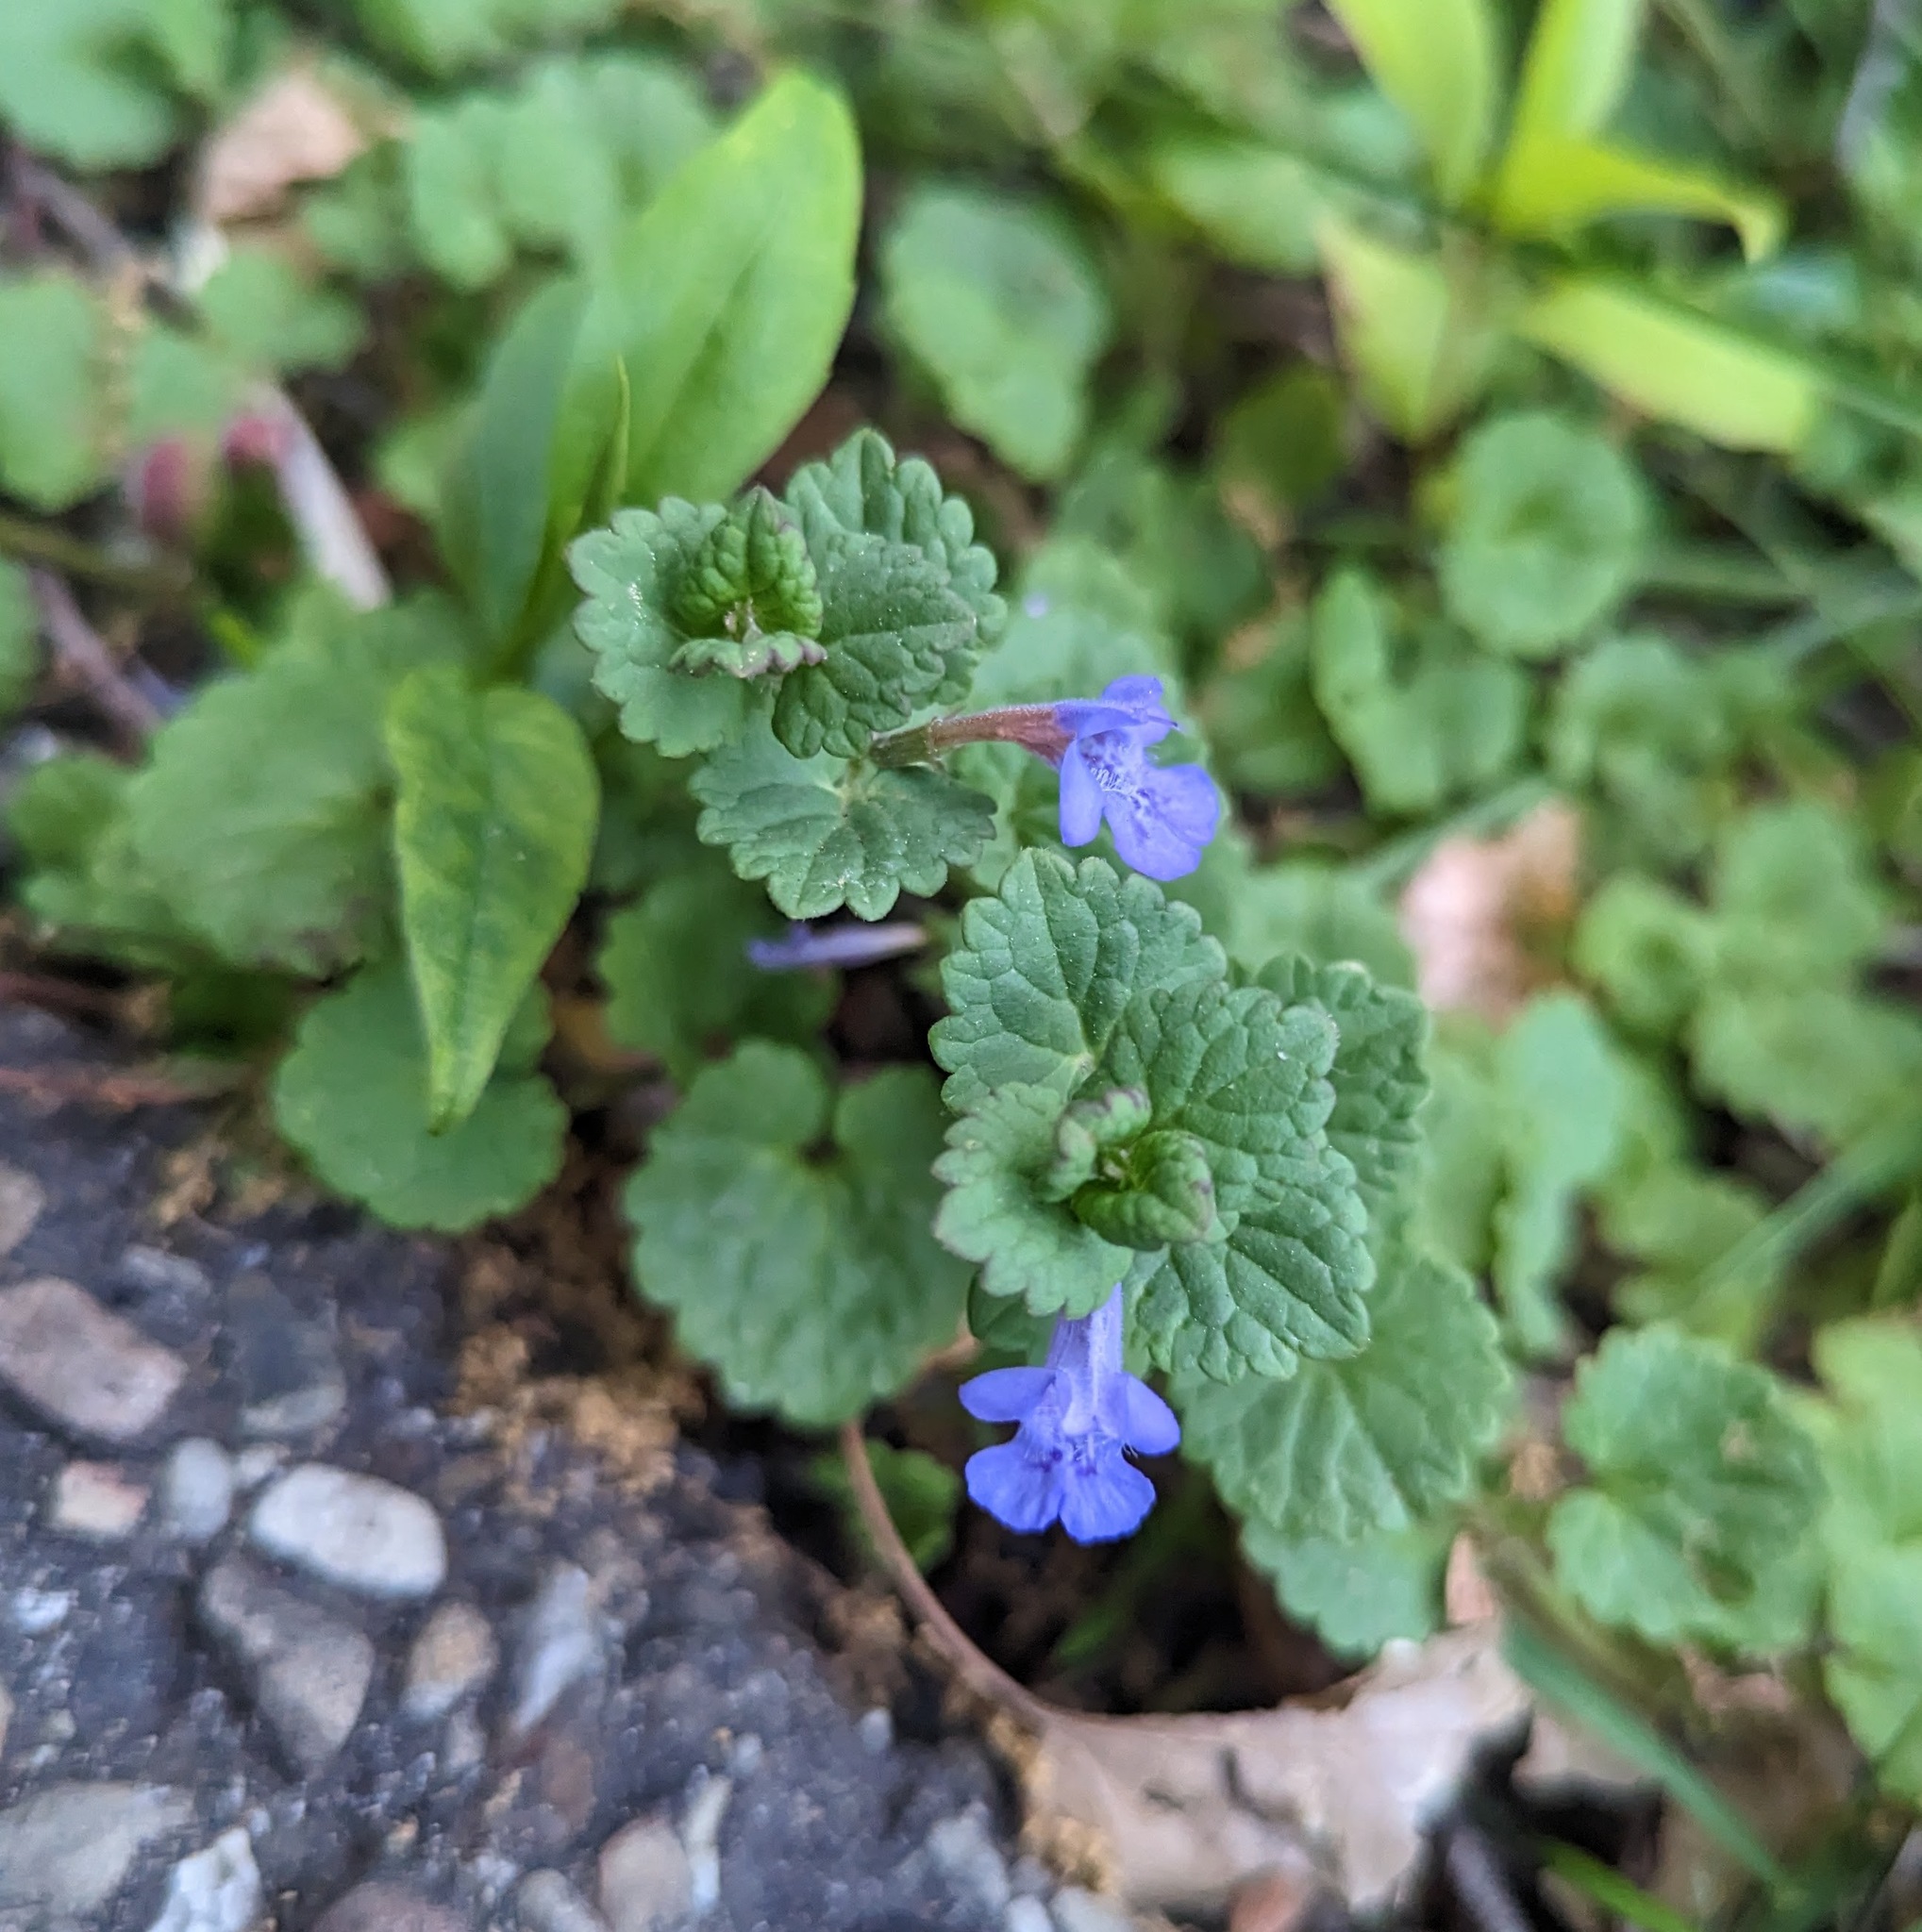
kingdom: Plantae
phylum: Tracheophyta
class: Magnoliopsida
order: Lamiales
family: Lamiaceae
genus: Glechoma
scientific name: Glechoma hederacea
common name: Ground ivy
